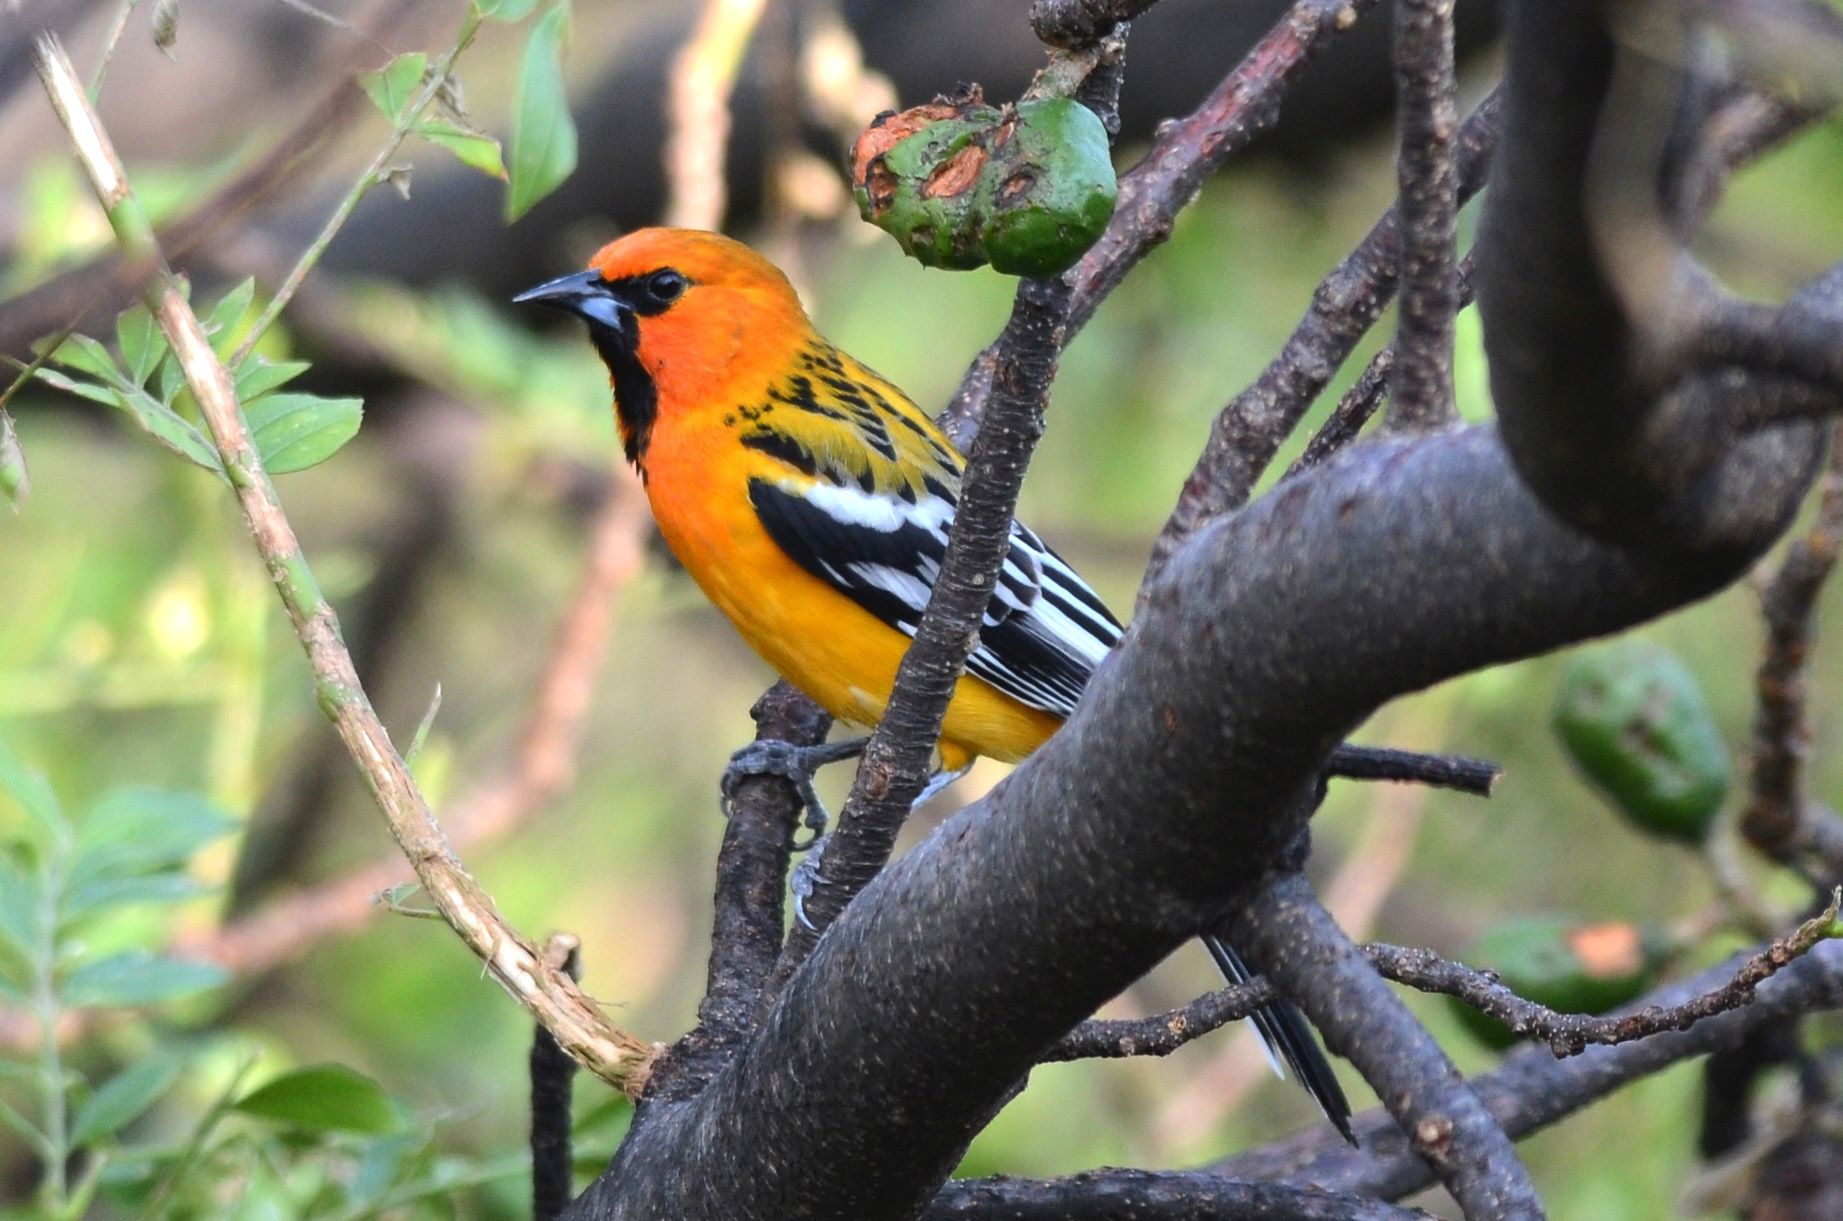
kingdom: Animalia
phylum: Chordata
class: Aves
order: Passeriformes
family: Icteridae
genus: Icterus
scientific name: Icterus pustulatus
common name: Streak-backed oriole
